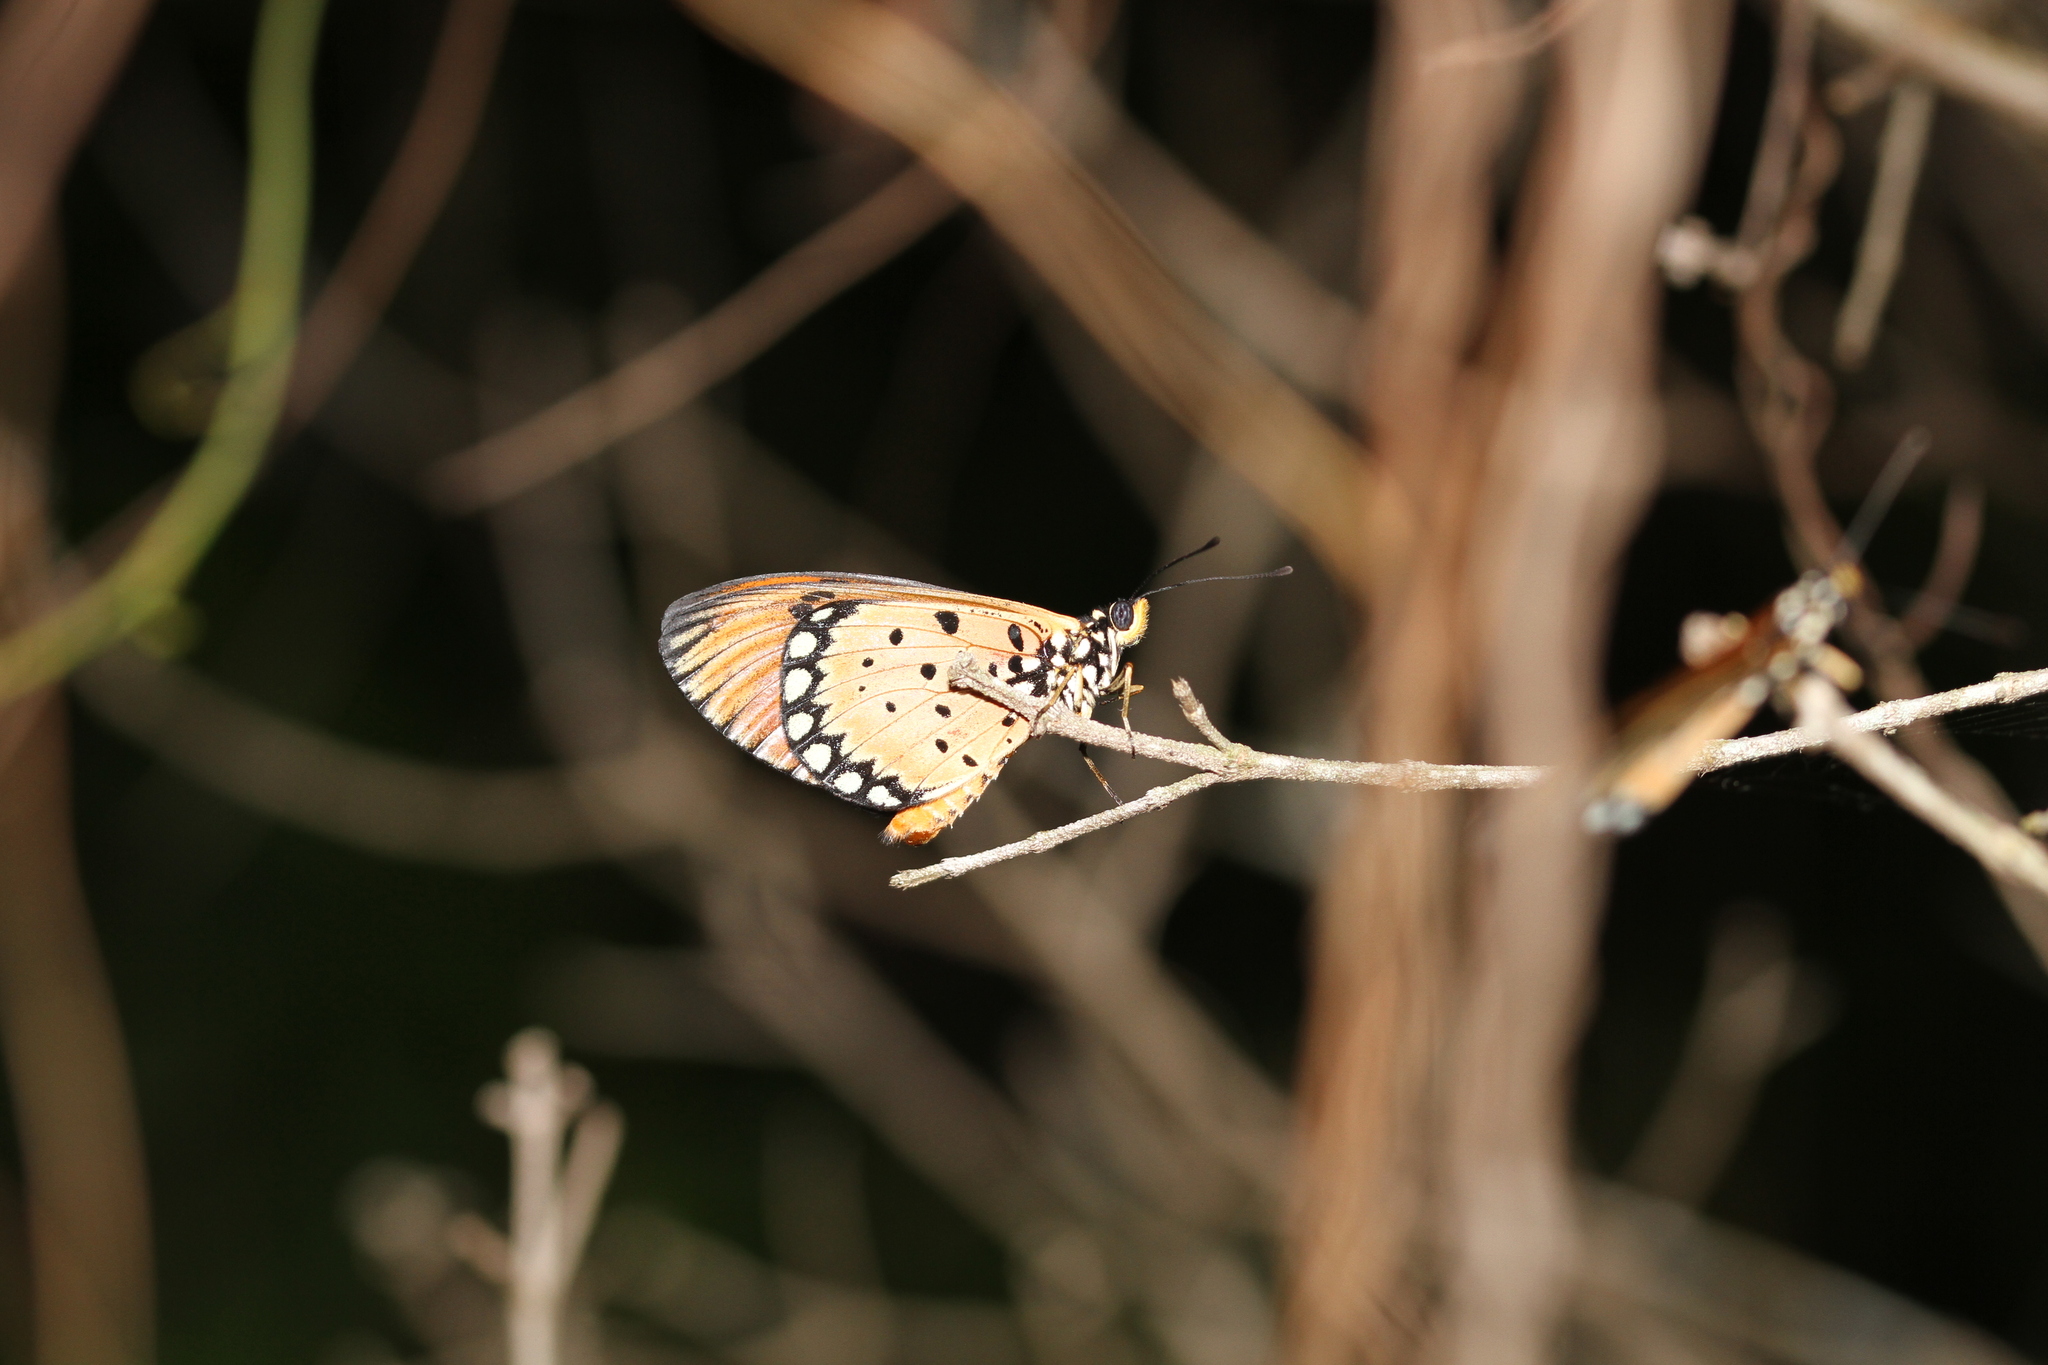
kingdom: Animalia
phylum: Arthropoda
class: Insecta
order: Lepidoptera
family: Nymphalidae
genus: Acraea
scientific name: Acraea terpsicore
